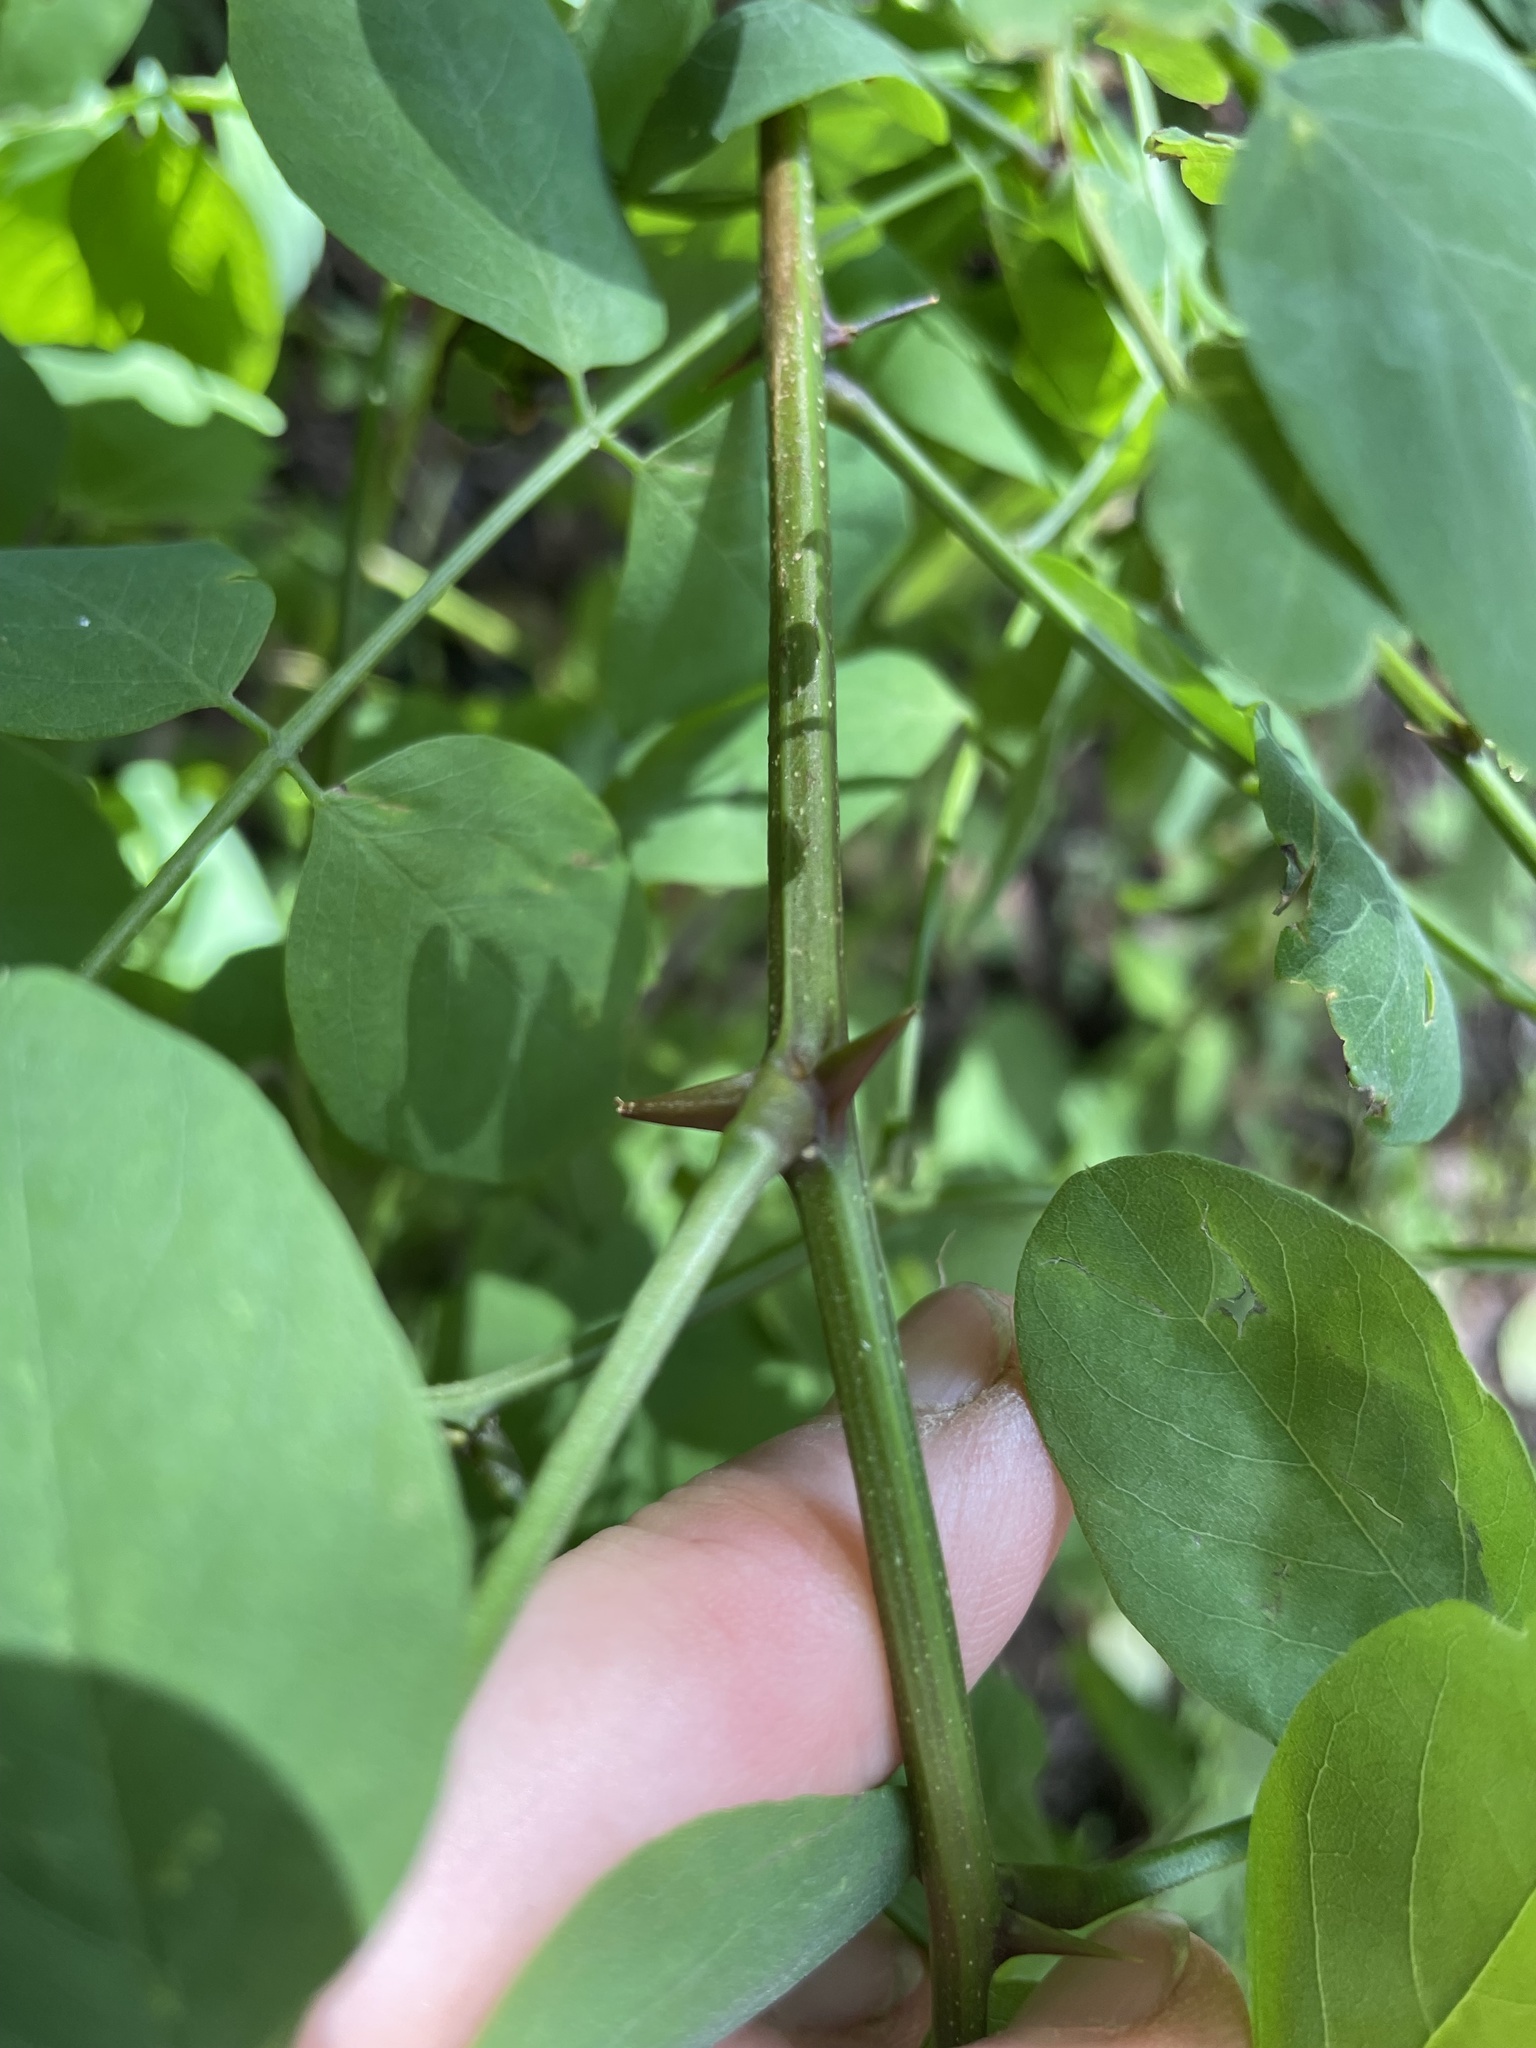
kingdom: Plantae
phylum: Tracheophyta
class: Magnoliopsida
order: Fabales
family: Fabaceae
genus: Robinia
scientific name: Robinia pseudoacacia
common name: Black locust
